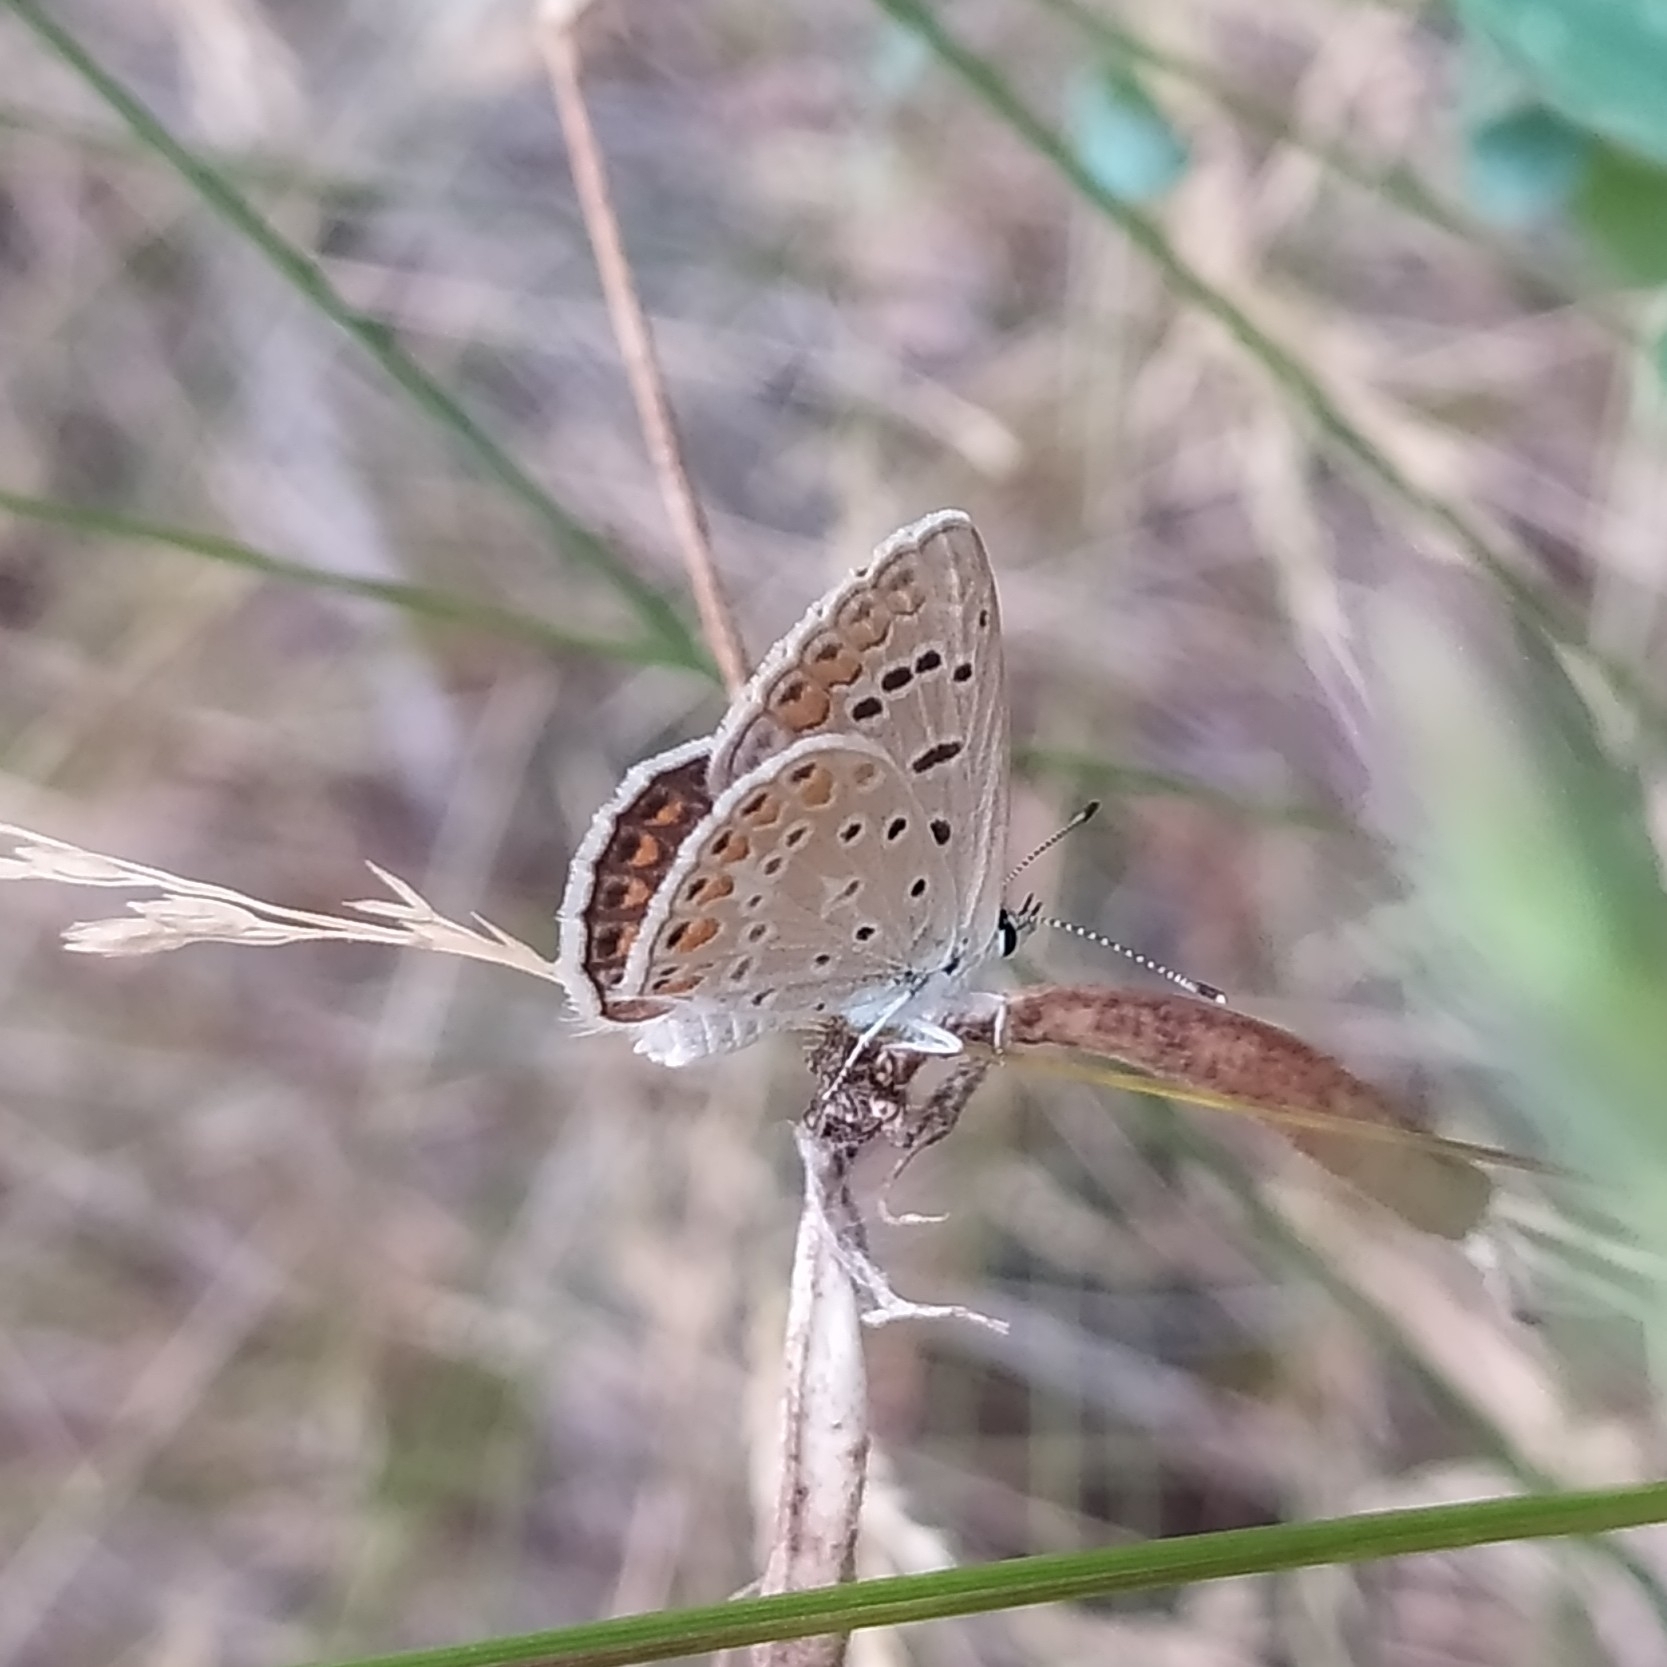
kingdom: Animalia
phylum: Arthropoda
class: Insecta
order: Lepidoptera
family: Lycaenidae
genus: Polyommatus
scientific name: Polyommatus icarus
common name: Common blue
